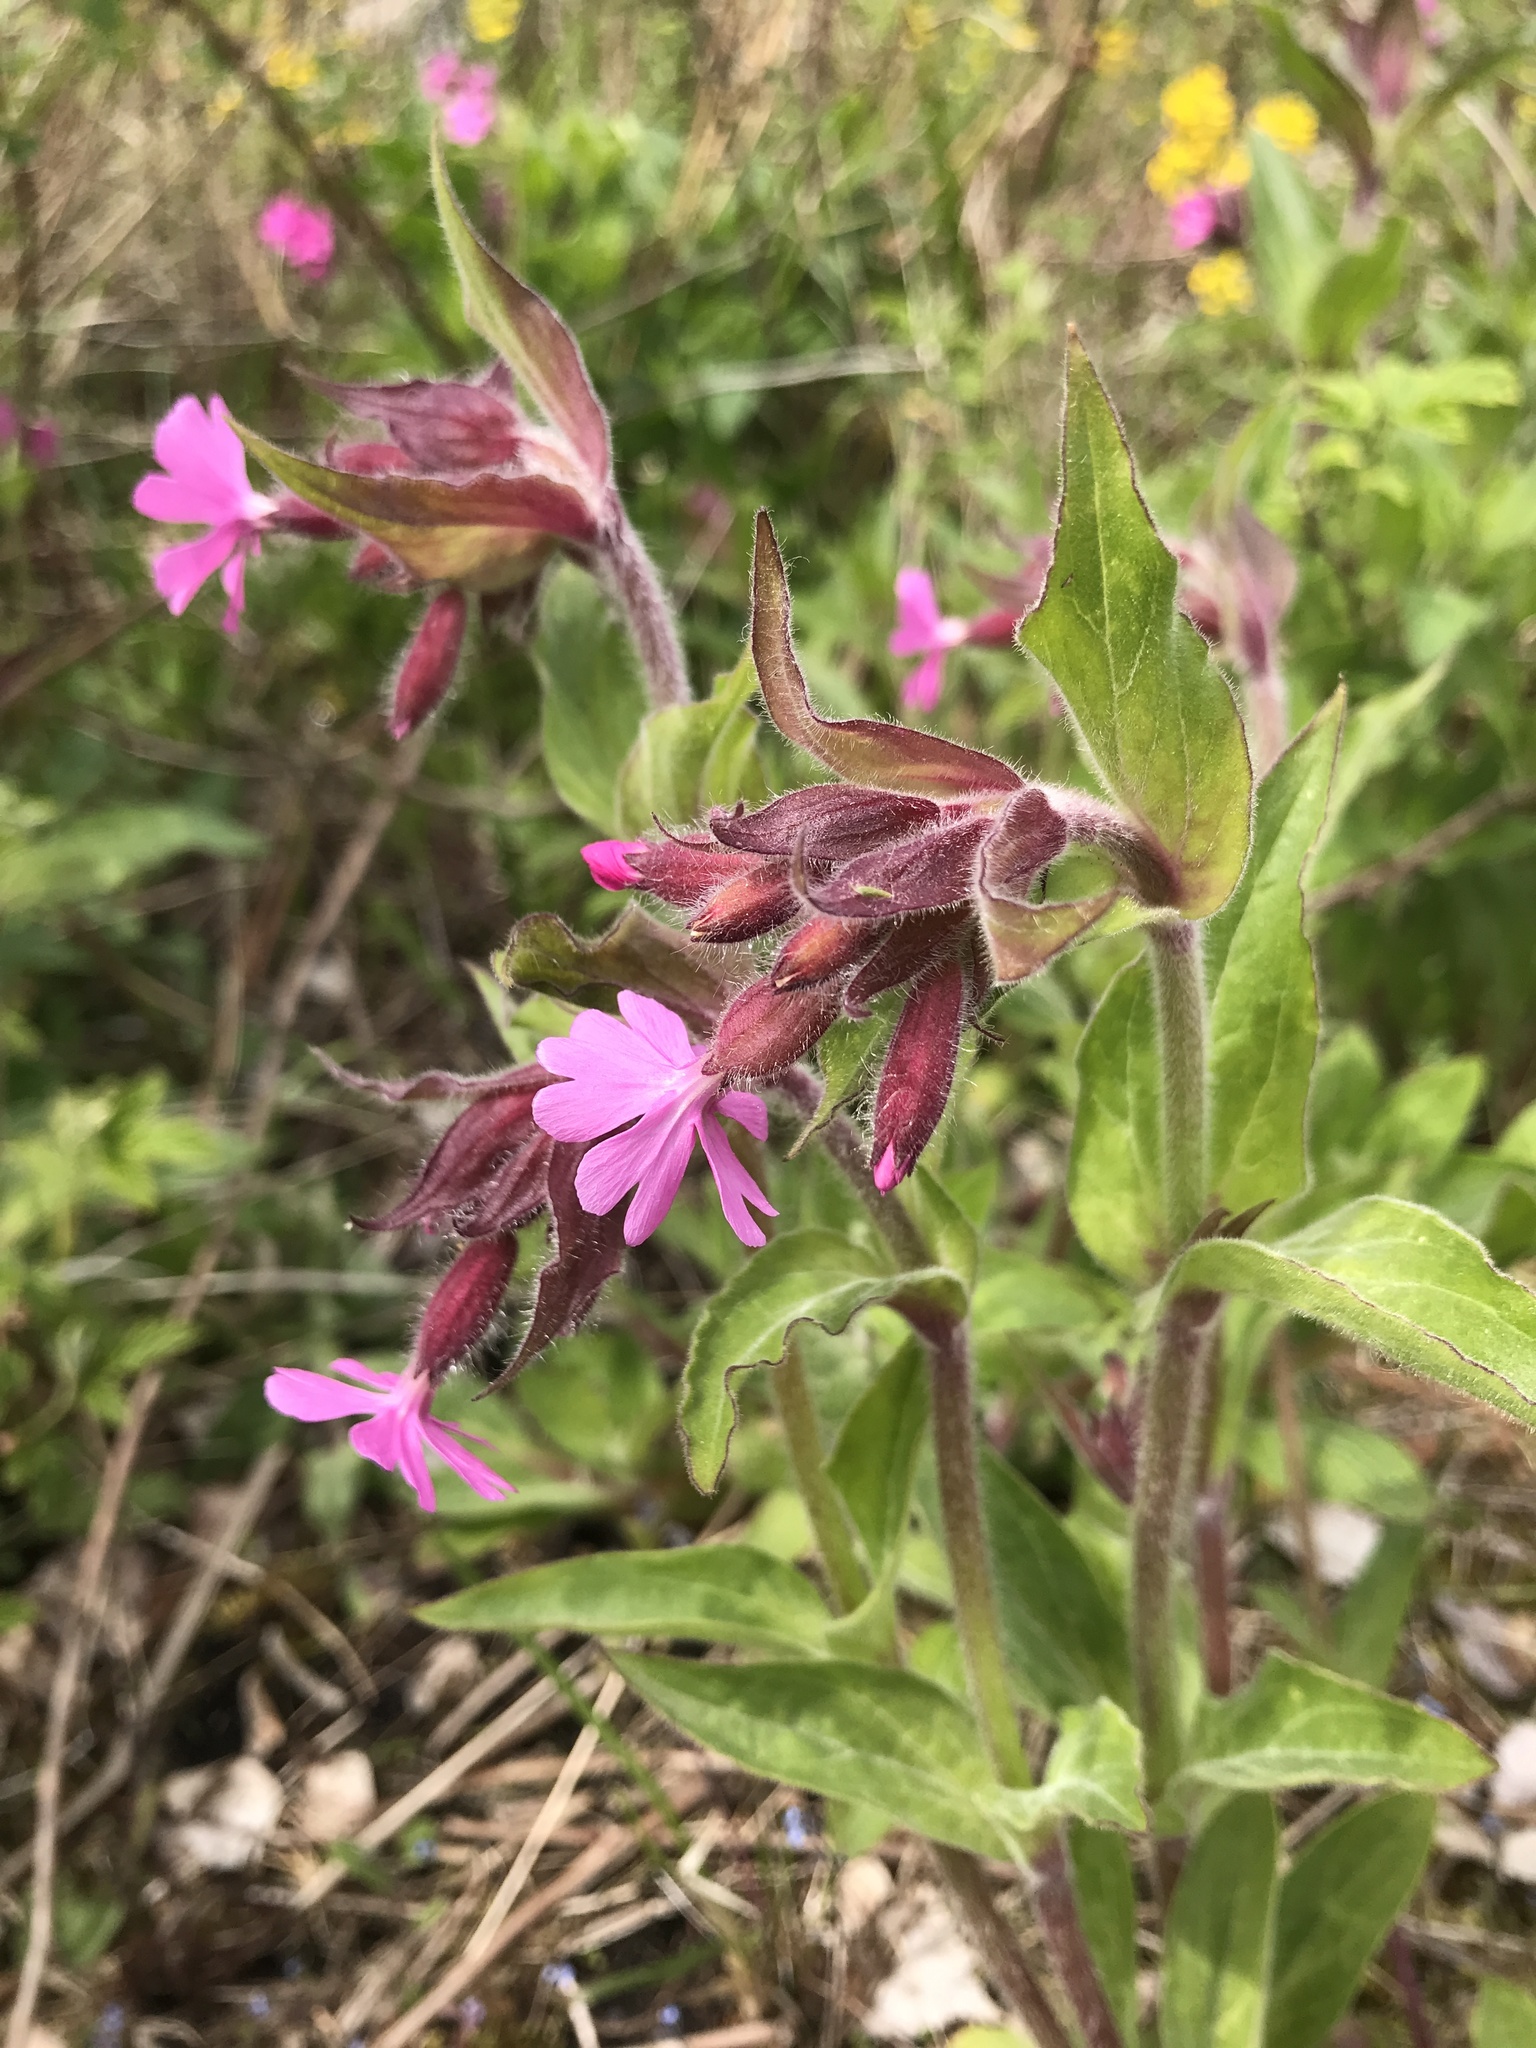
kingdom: Plantae
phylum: Tracheophyta
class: Magnoliopsida
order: Caryophyllales
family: Caryophyllaceae
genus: Silene
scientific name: Silene dioica
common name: Red campion
